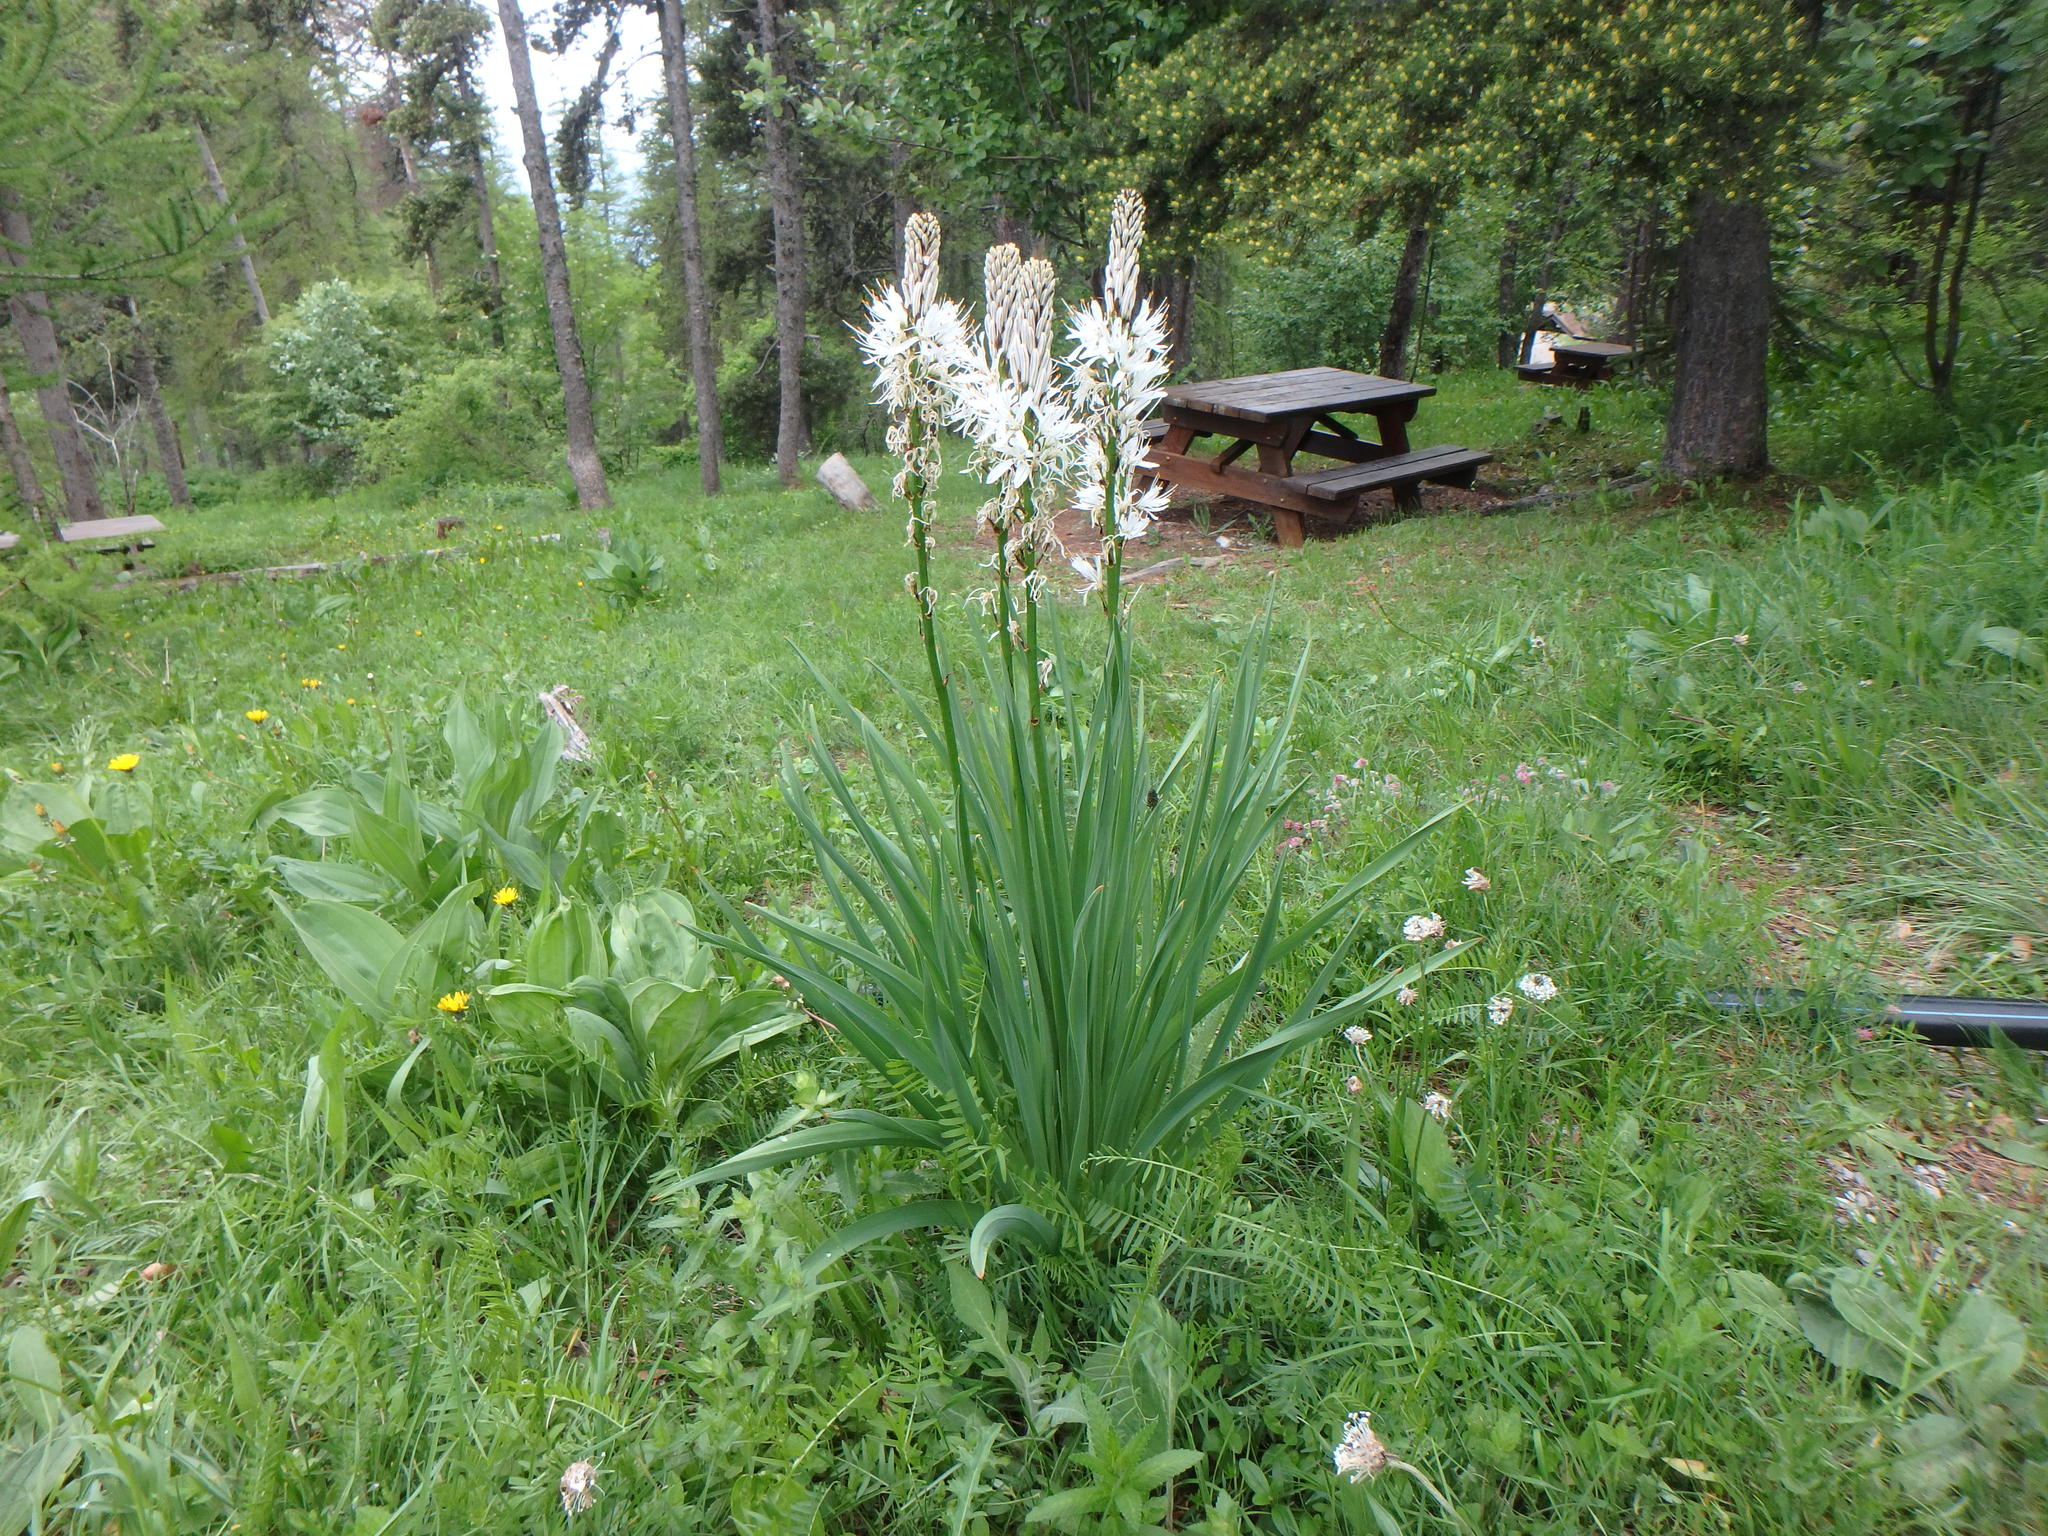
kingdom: Plantae
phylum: Tracheophyta
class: Liliopsida
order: Asparagales
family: Asphodelaceae
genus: Asphodelus
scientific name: Asphodelus albus
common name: White asphodel
